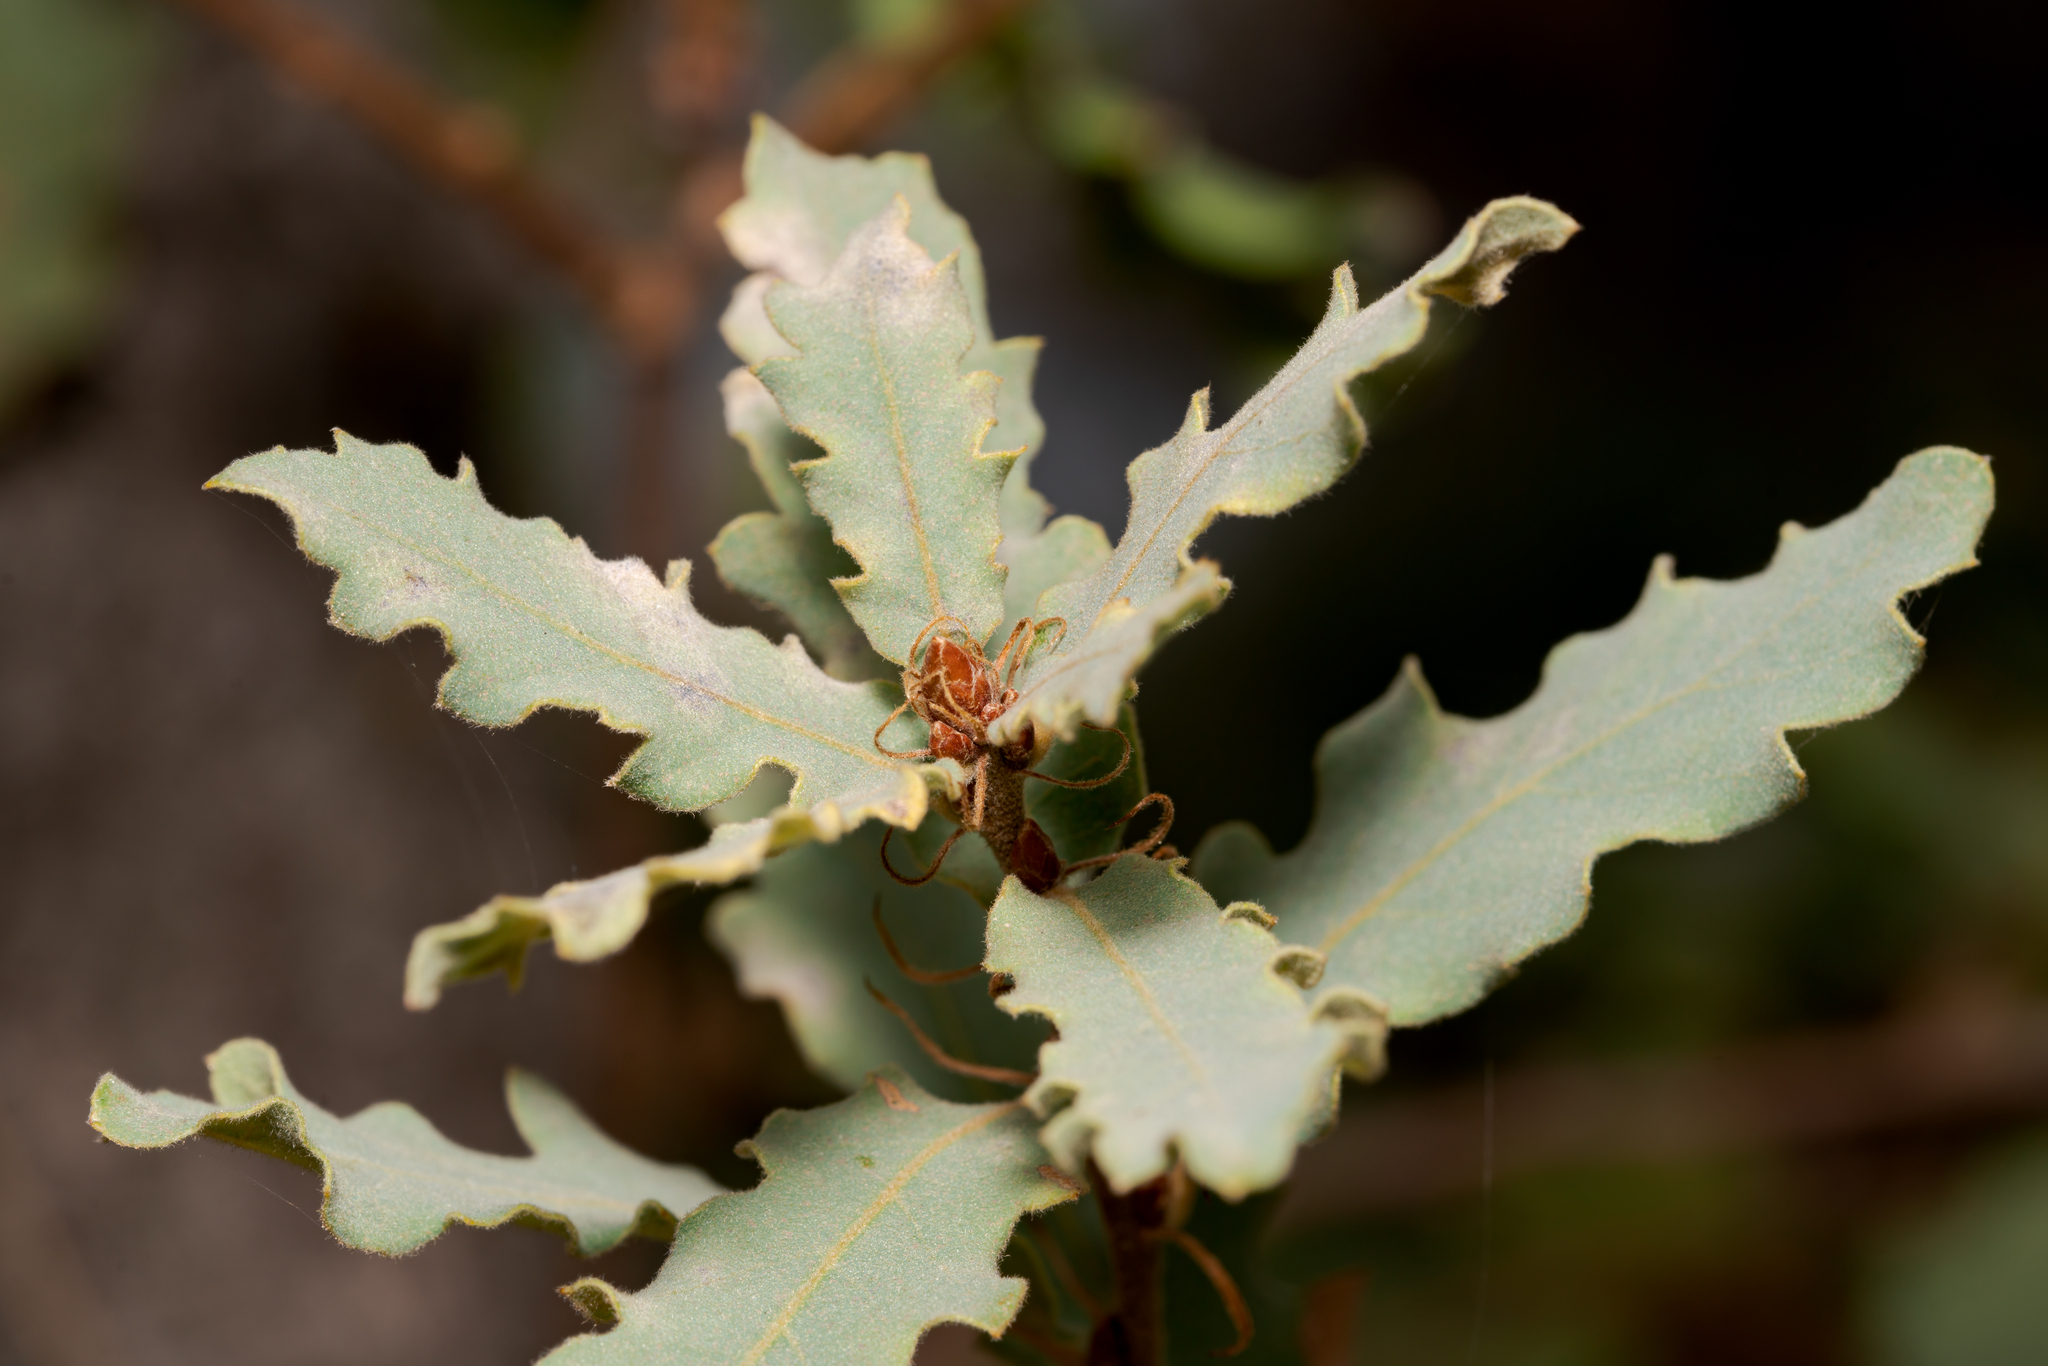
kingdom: Plantae
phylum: Tracheophyta
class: Magnoliopsida
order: Fagales
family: Fagaceae
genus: Quercus
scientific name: Quercus pubescens
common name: Downy oak
